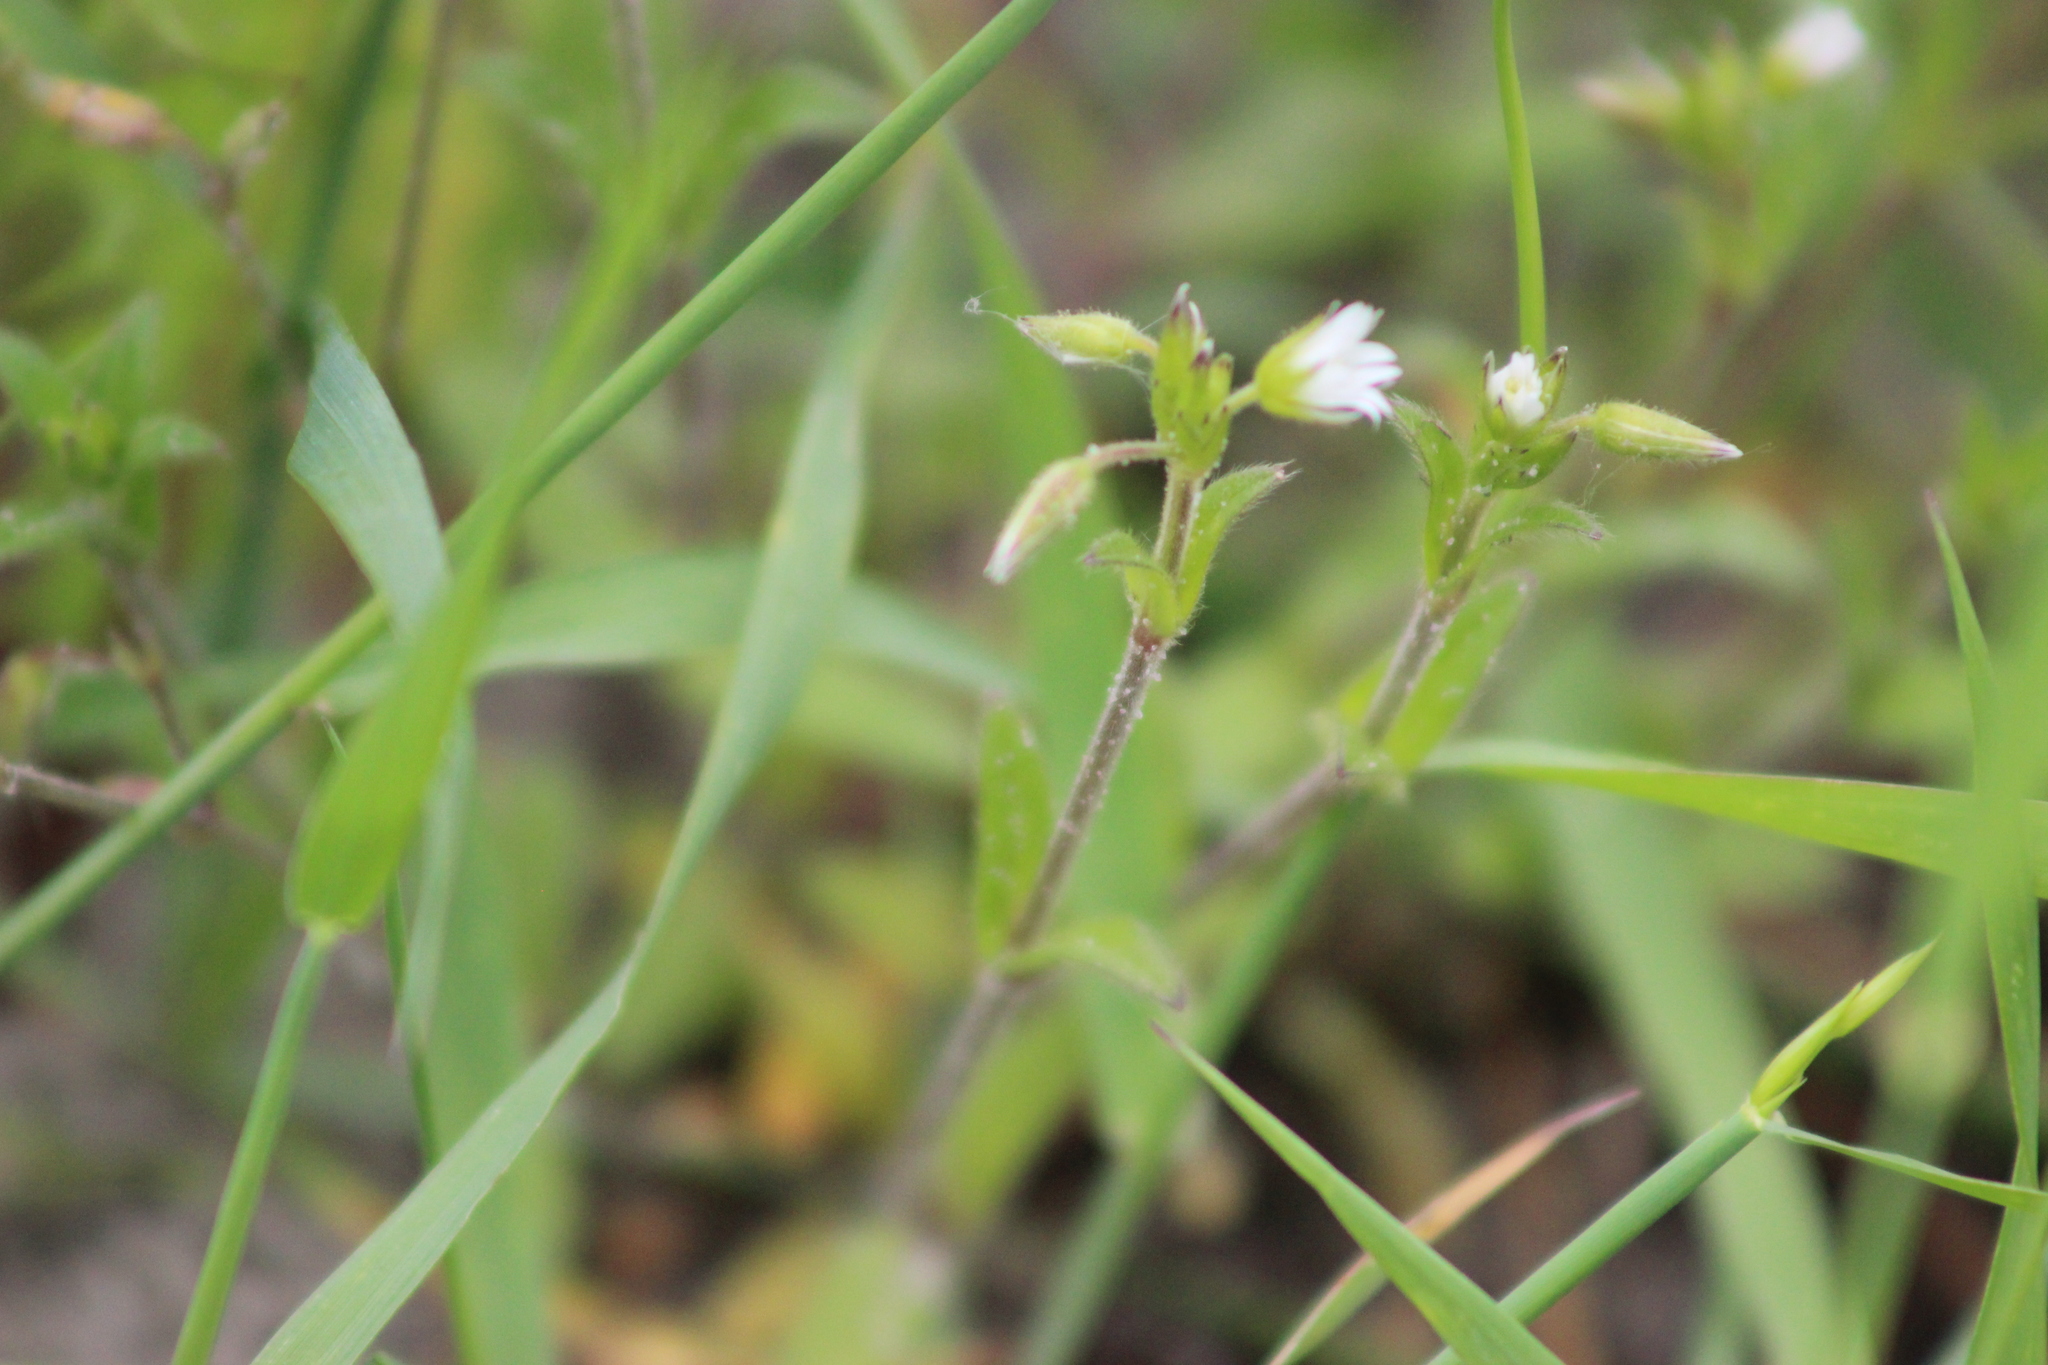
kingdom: Plantae
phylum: Tracheophyta
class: Magnoliopsida
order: Caryophyllales
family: Caryophyllaceae
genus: Cerastium
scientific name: Cerastium holosteoides
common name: Big chickweed
